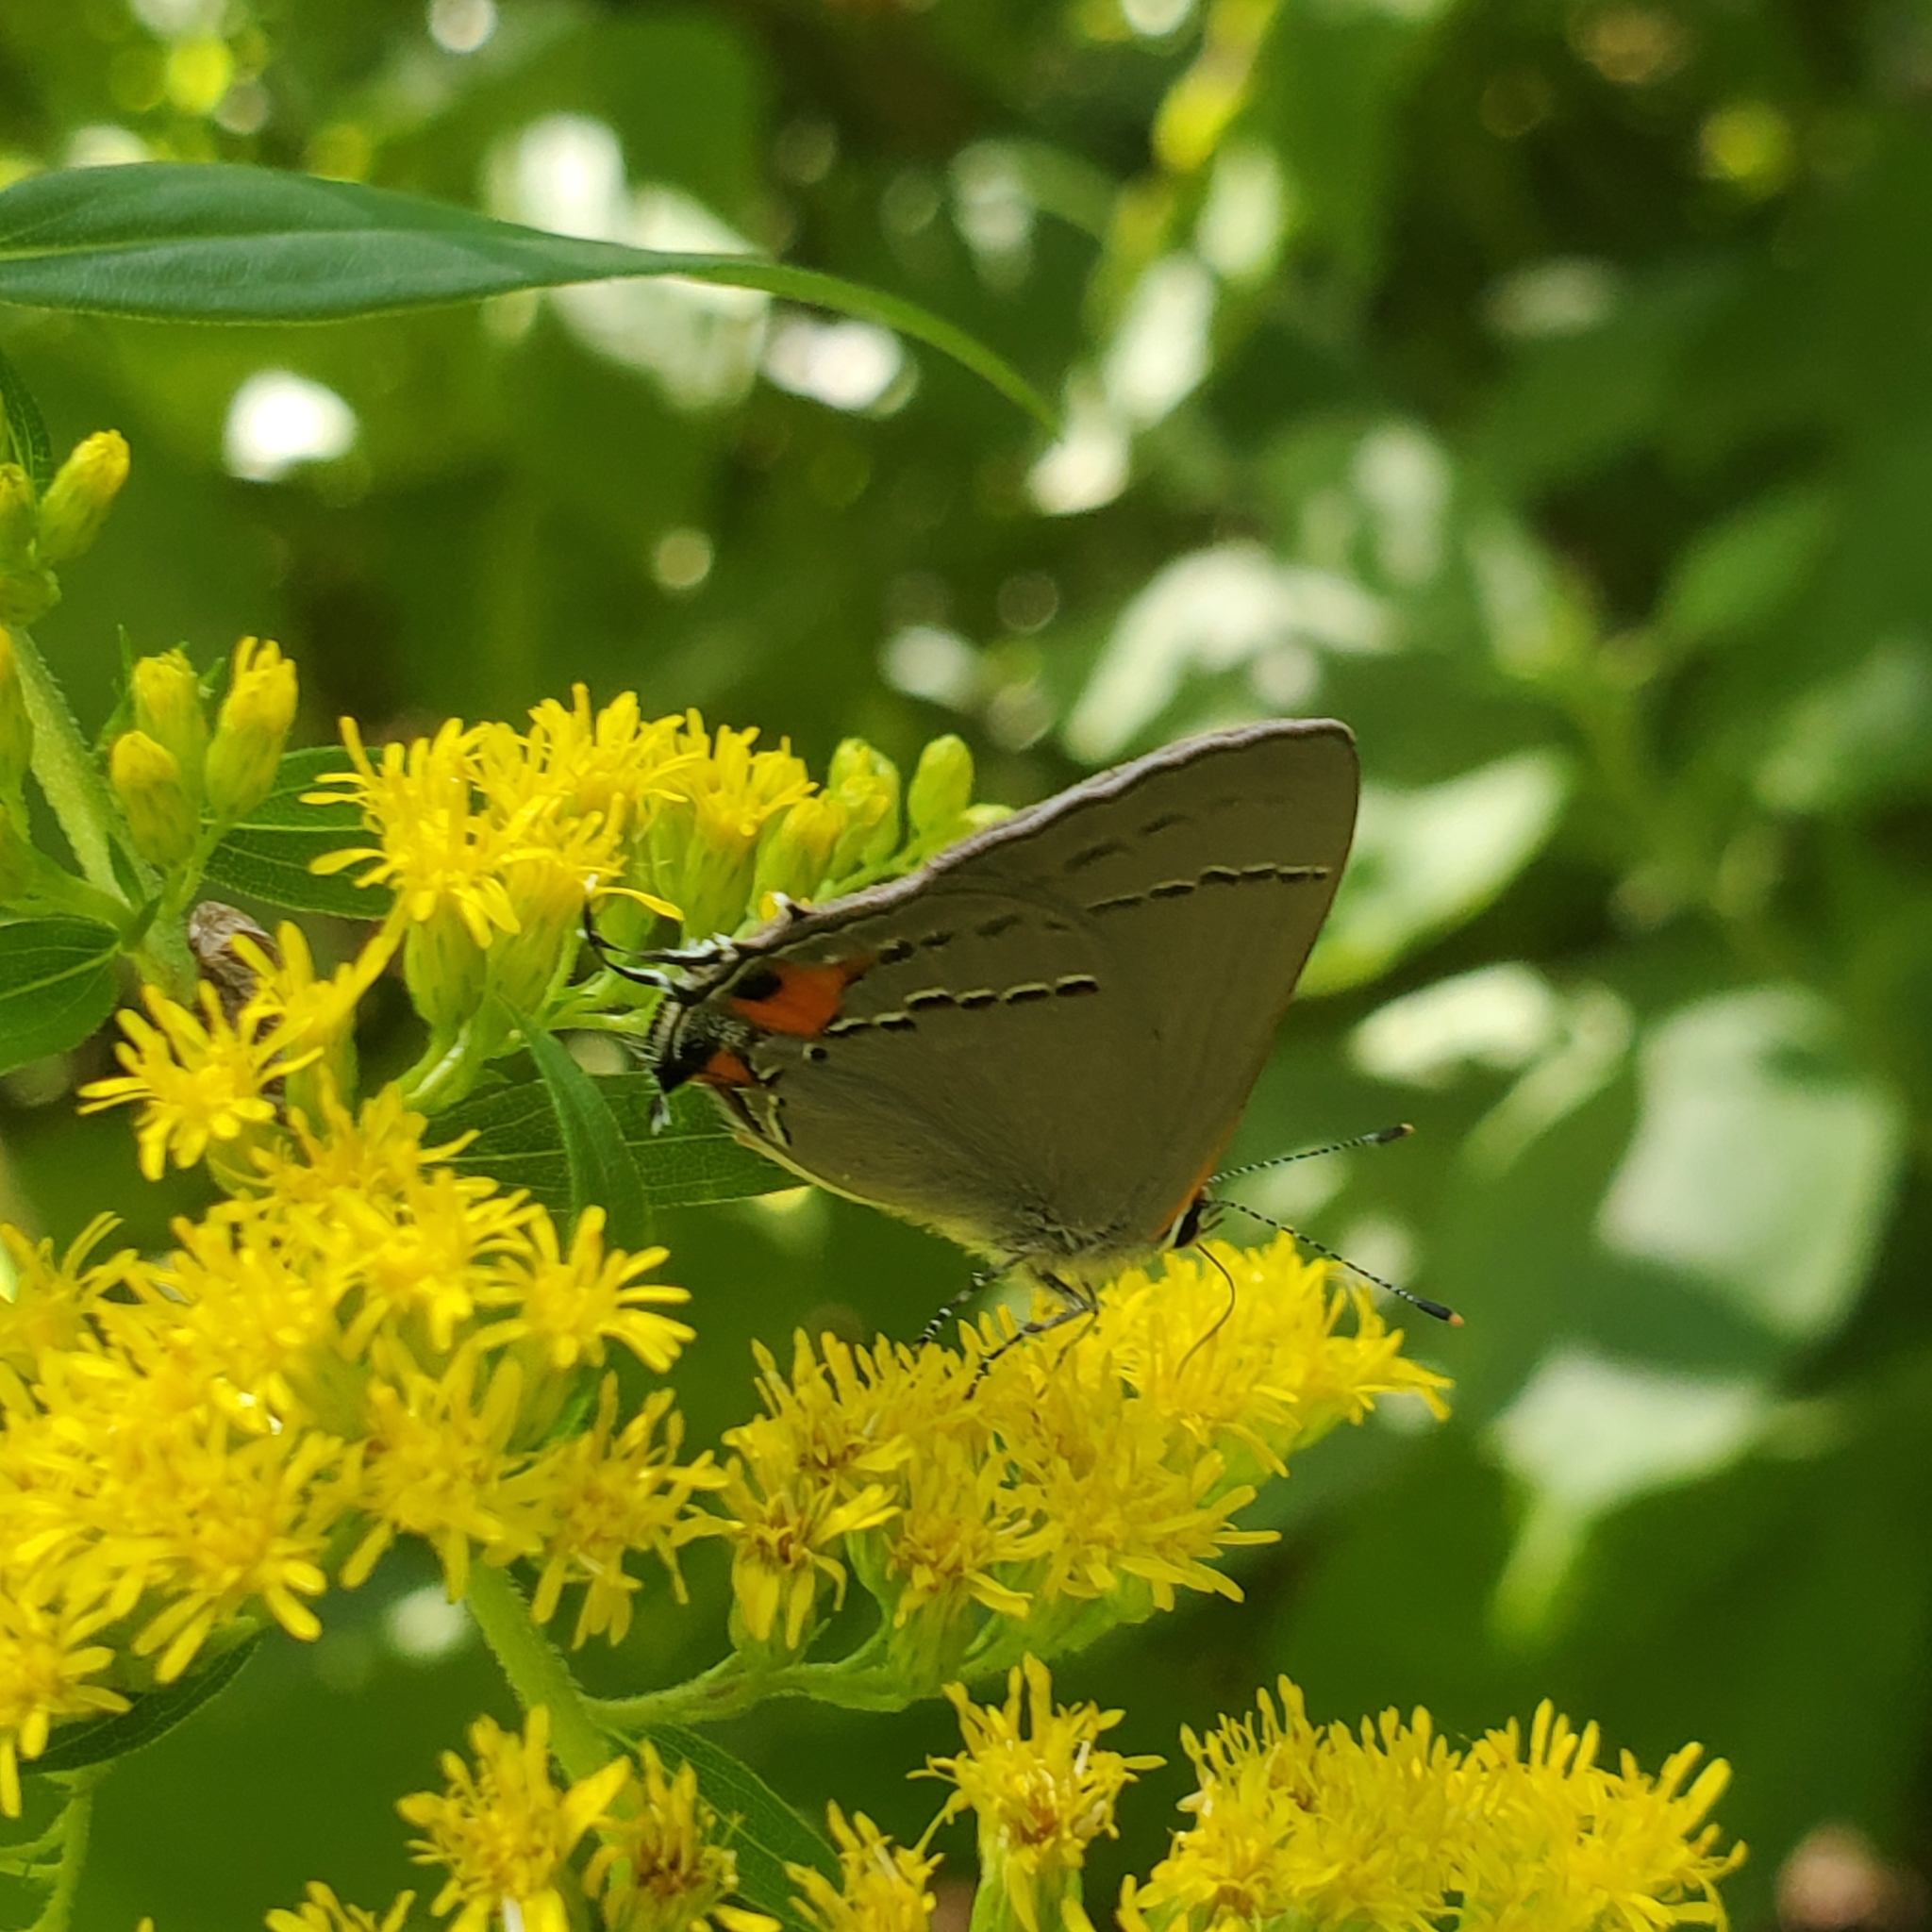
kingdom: Animalia
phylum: Arthropoda
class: Insecta
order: Lepidoptera
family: Lycaenidae
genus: Strymon
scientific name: Strymon melinus
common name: Gray hairstreak
